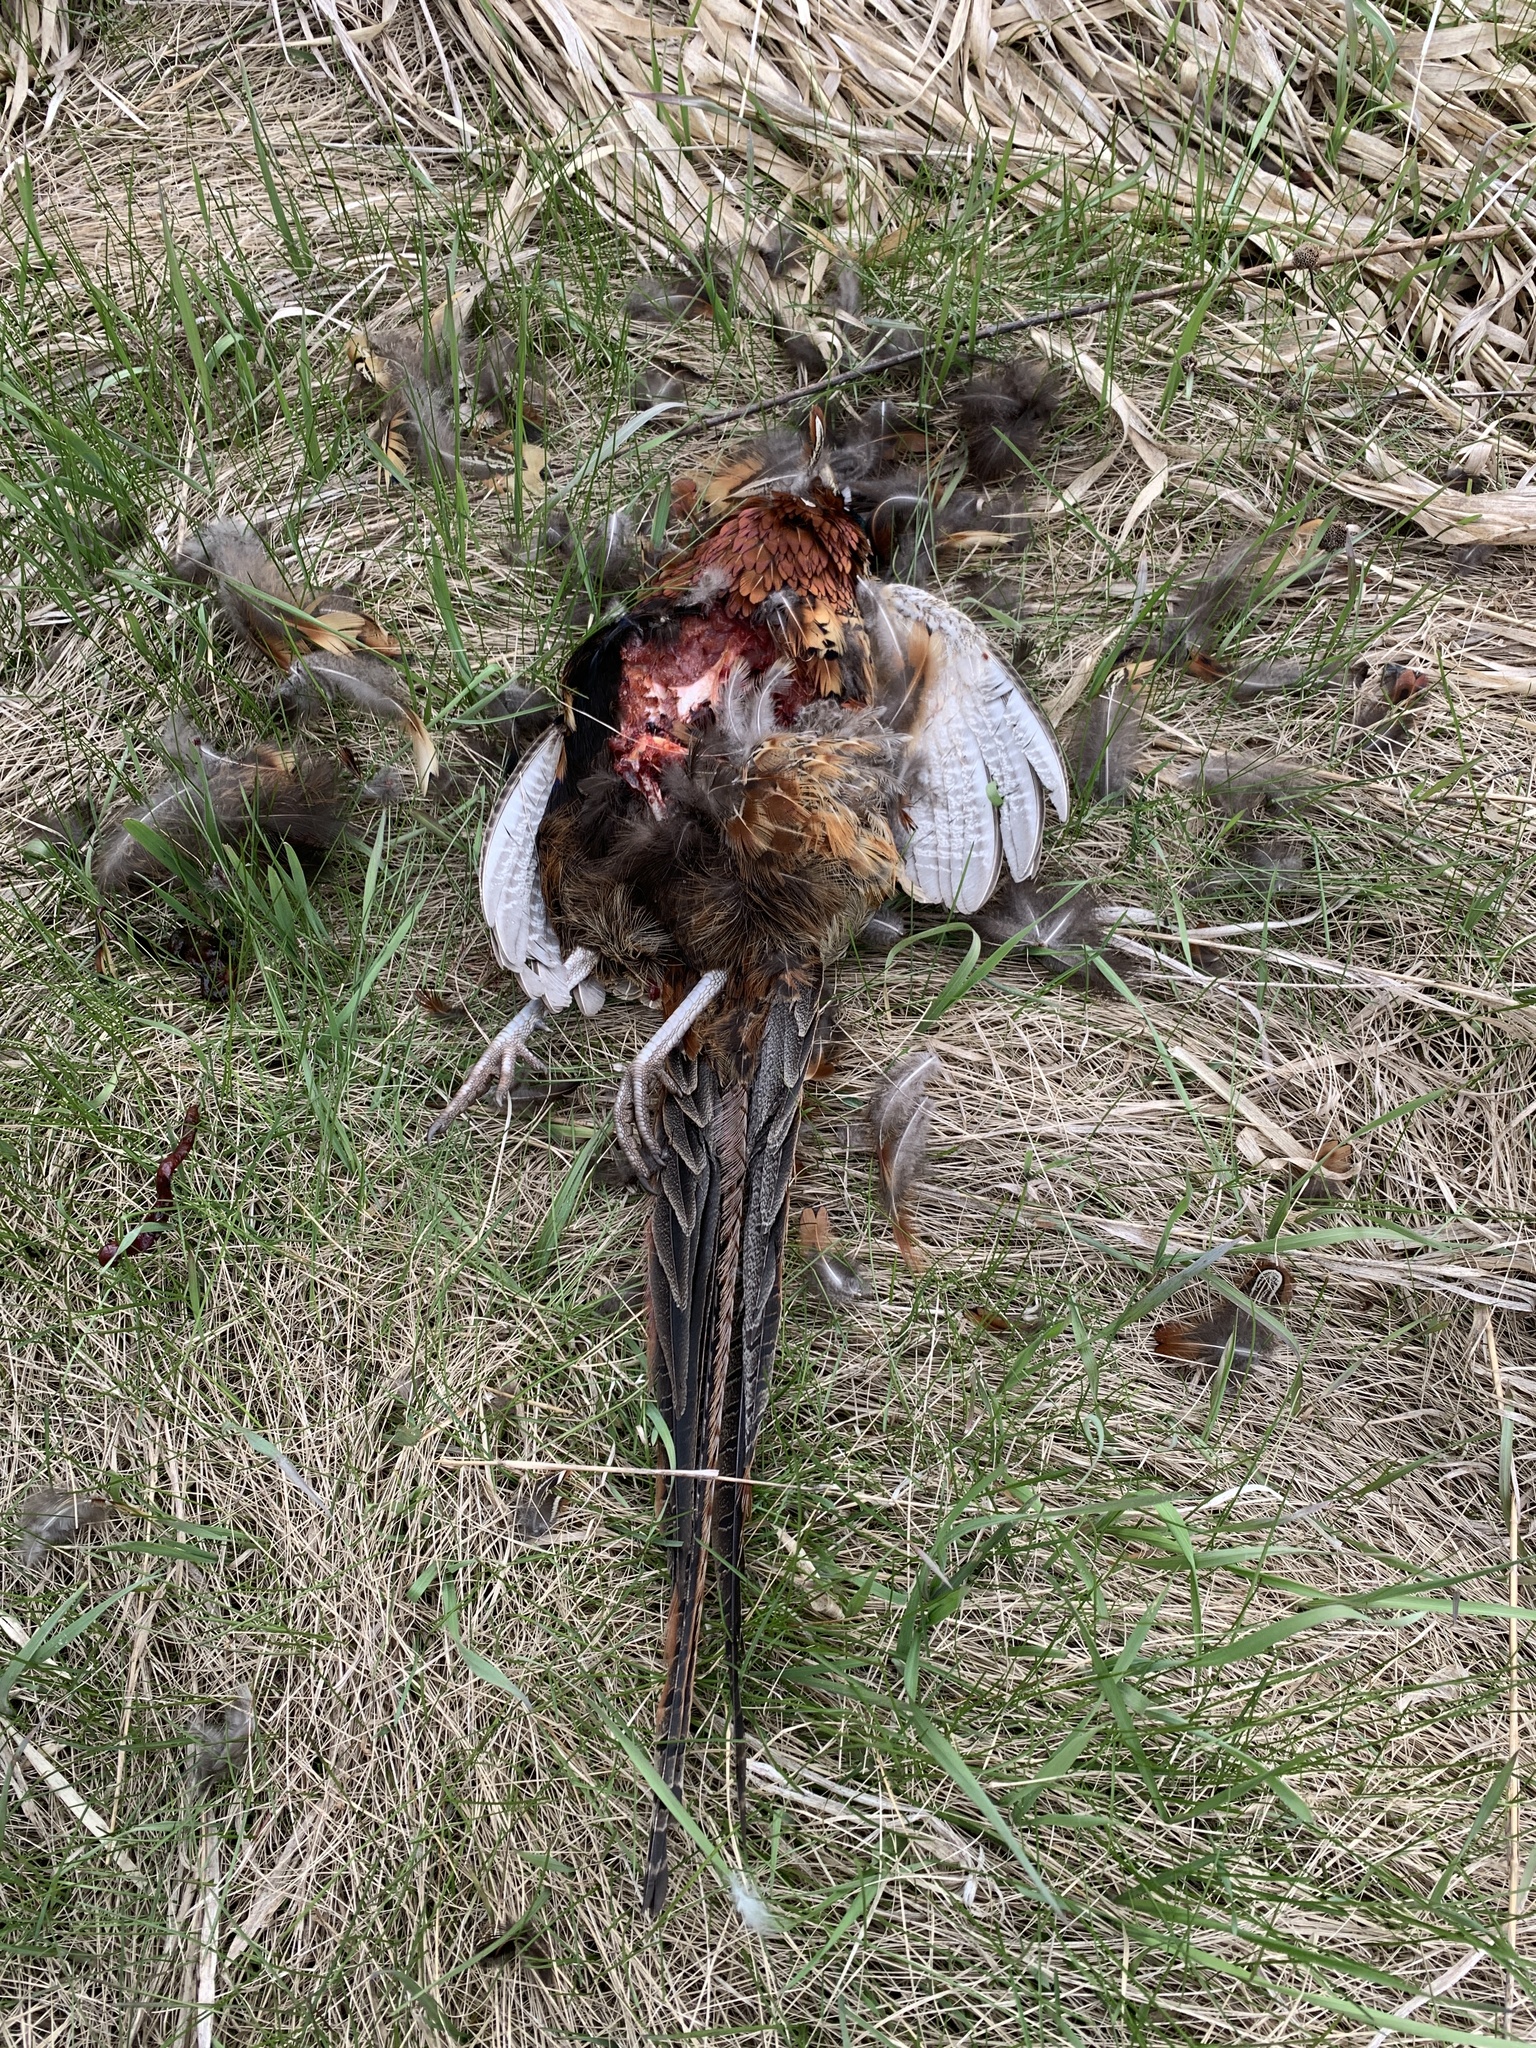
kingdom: Animalia
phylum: Chordata
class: Aves
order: Galliformes
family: Phasianidae
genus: Phasianus
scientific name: Phasianus colchicus
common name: Common pheasant
